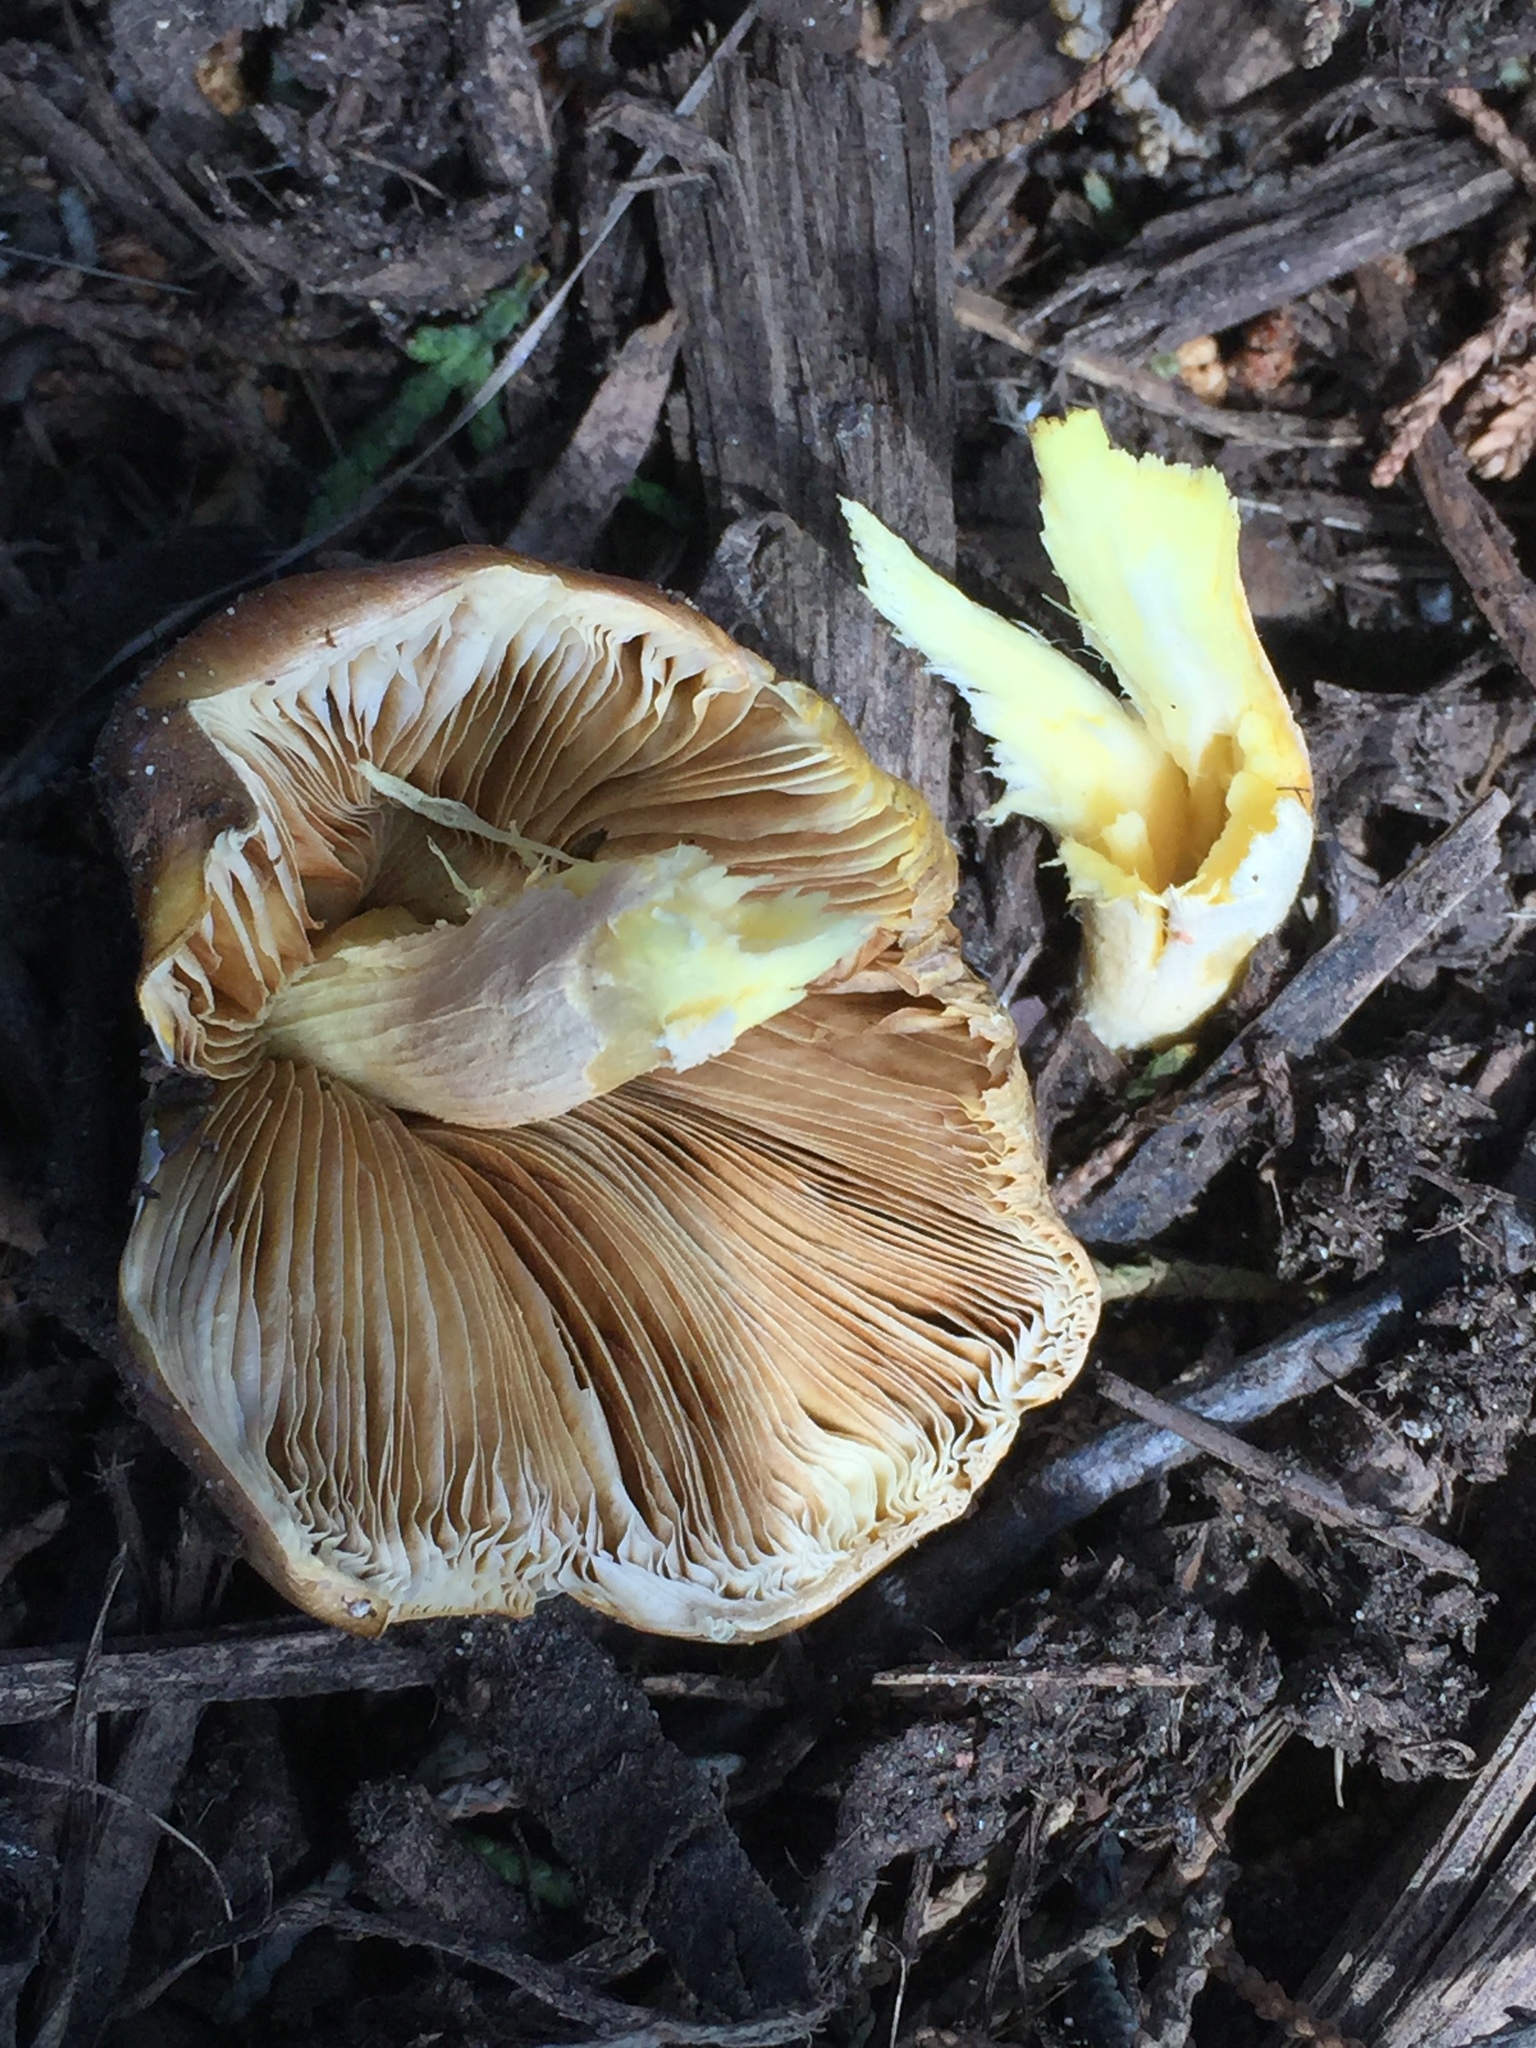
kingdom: Fungi
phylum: Basidiomycota
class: Agaricomycetes
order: Agaricales
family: Bolbitiaceae
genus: Bolbitius
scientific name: Bolbitius titubans
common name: Yellow fieldcap
